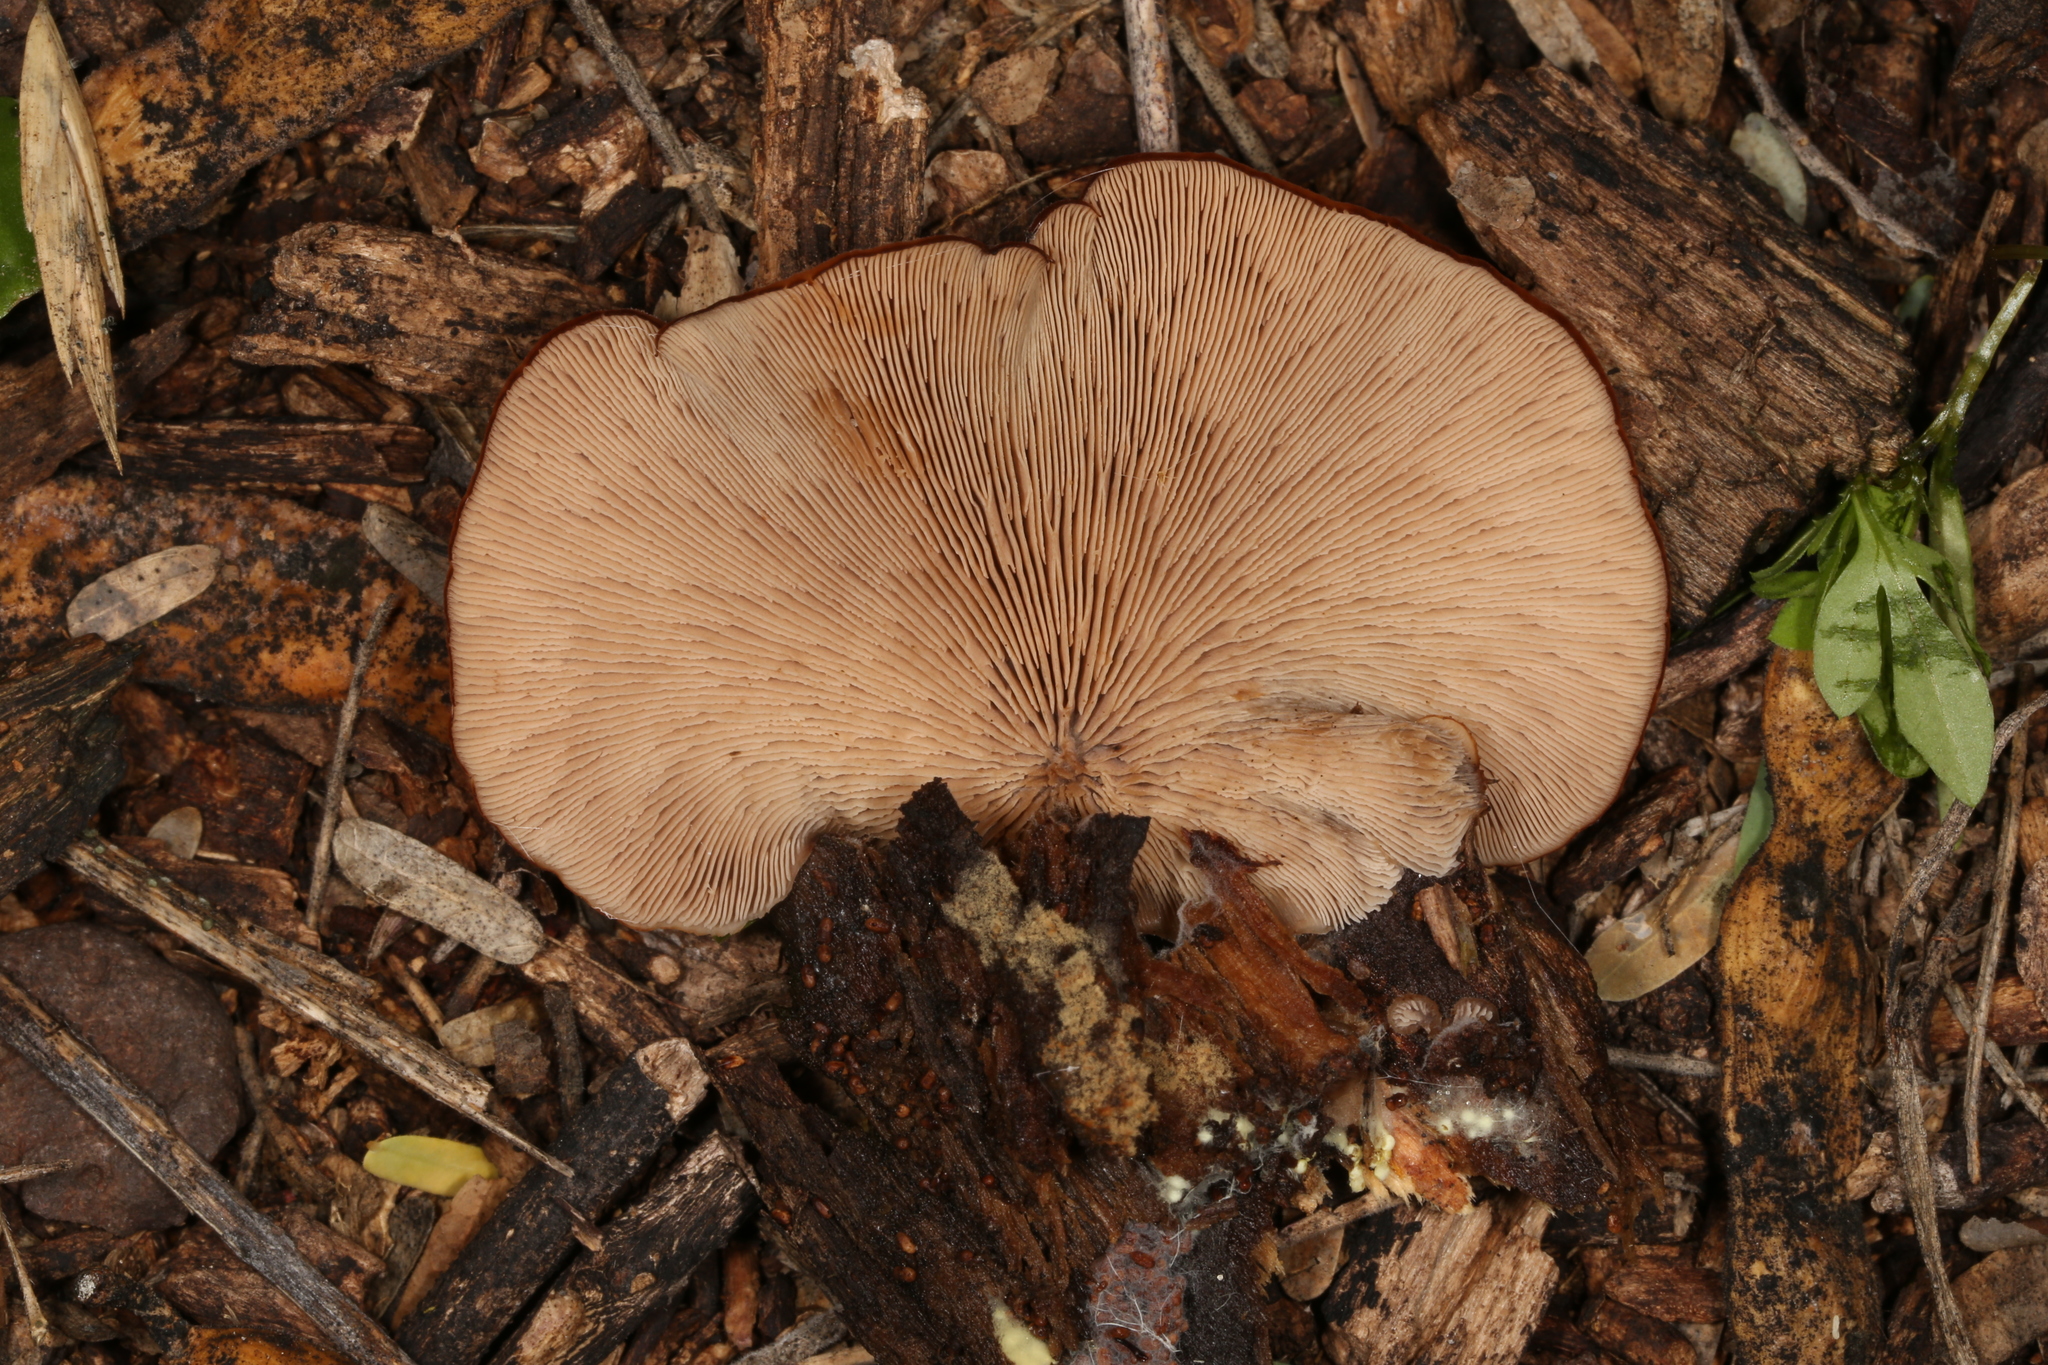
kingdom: Fungi
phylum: Basidiomycota
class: Agaricomycetes
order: Russulales
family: Auriscalpiaceae
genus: Lentinellus
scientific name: Lentinellus ursinus
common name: Bear lentinus
